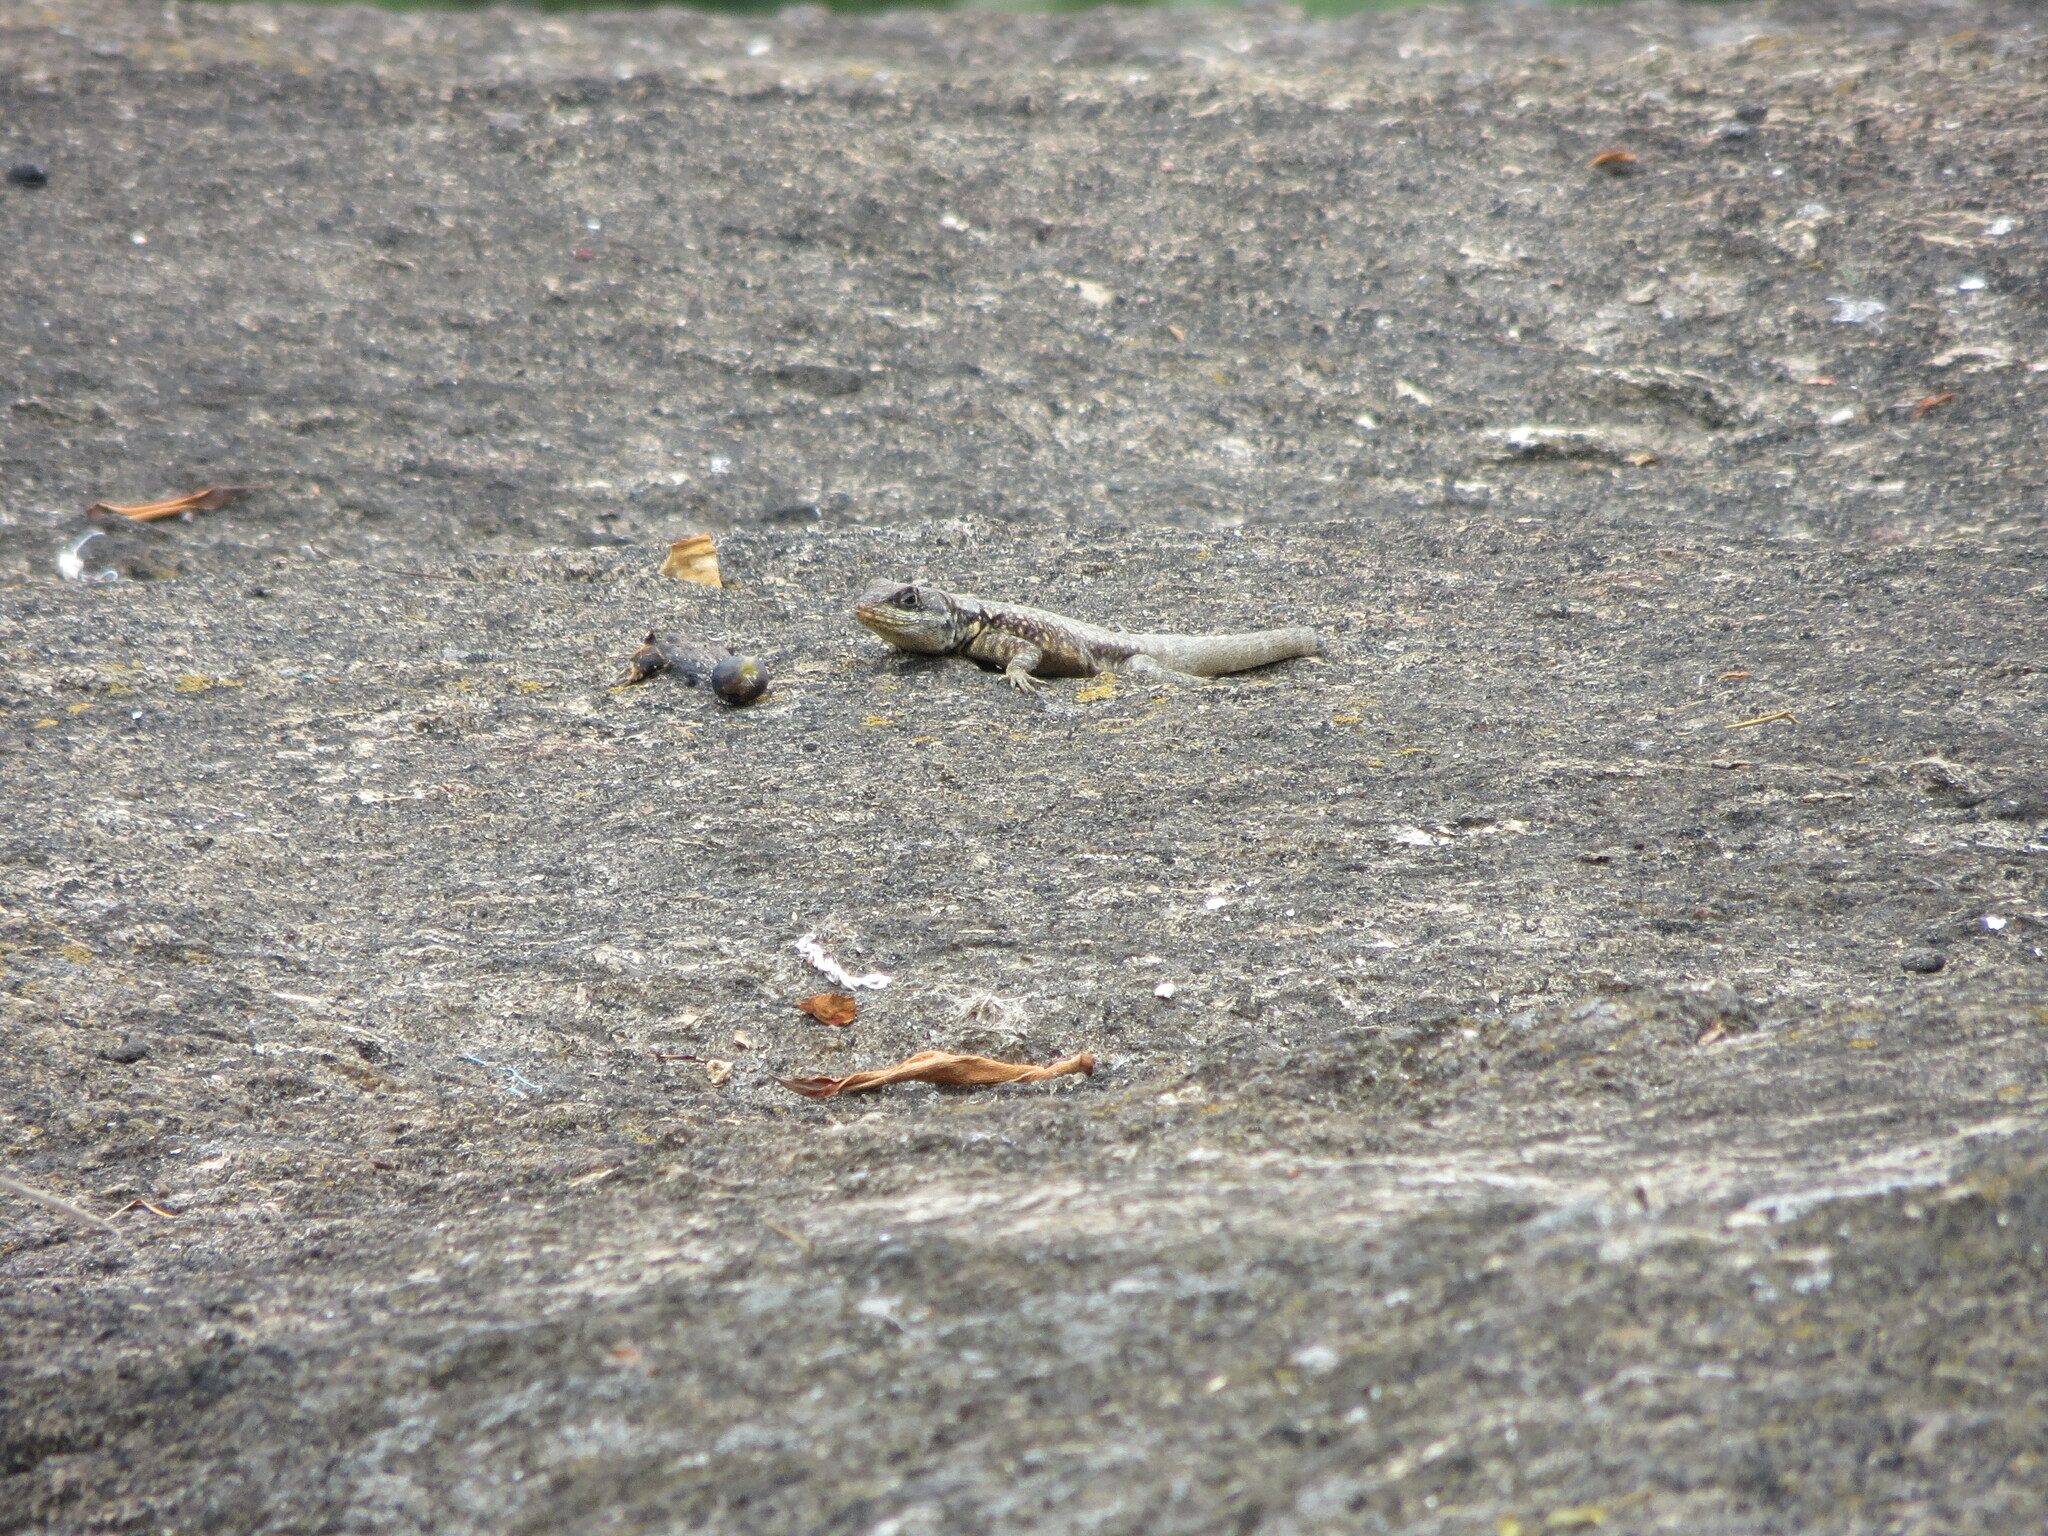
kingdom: Animalia
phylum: Chordata
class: Squamata
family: Tropiduridae
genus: Tropidurus
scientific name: Tropidurus torquatus
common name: Amazon lava lizard
